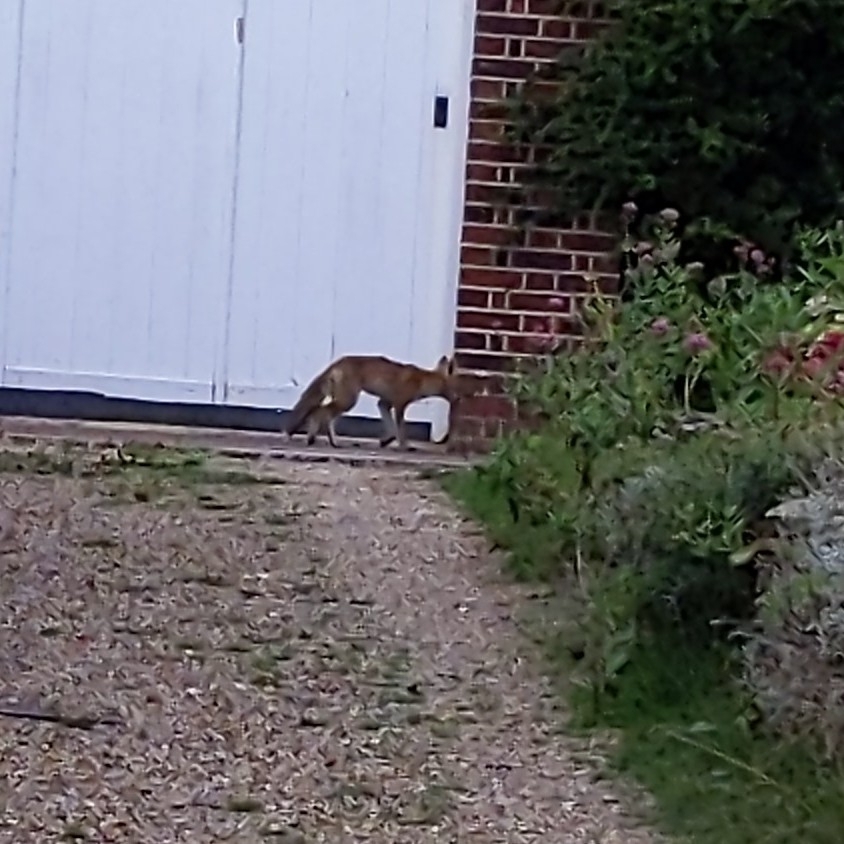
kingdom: Animalia
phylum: Chordata
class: Mammalia
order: Carnivora
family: Canidae
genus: Vulpes
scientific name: Vulpes vulpes
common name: Red fox
